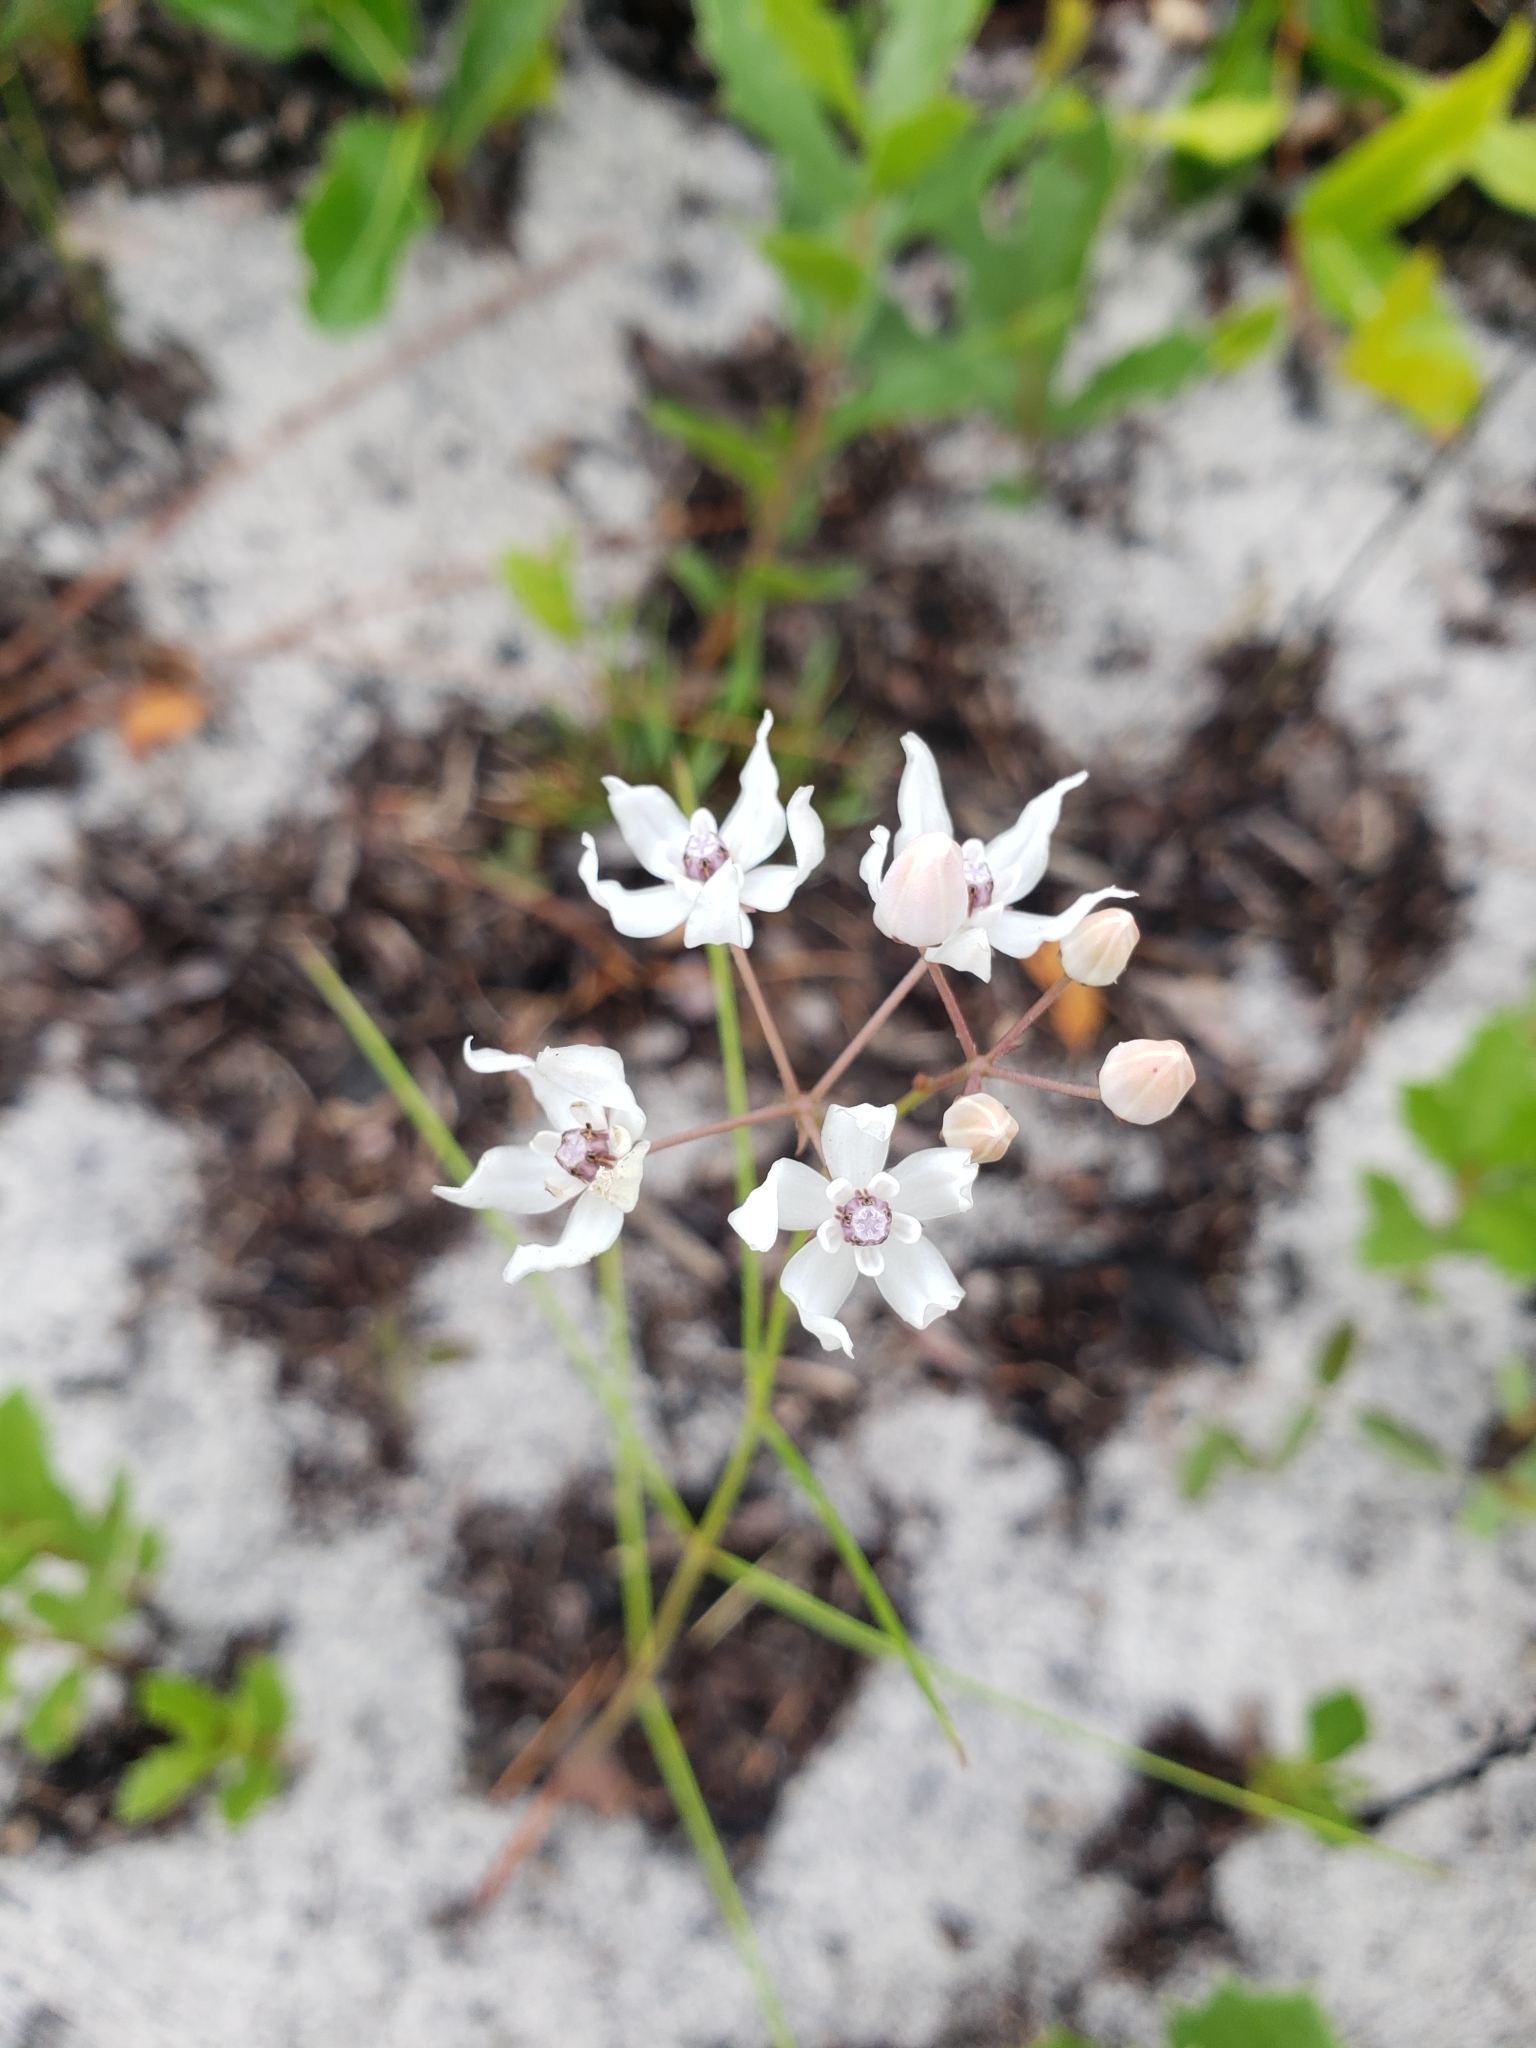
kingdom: Plantae
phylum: Tracheophyta
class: Magnoliopsida
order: Gentianales
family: Apocynaceae
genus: Asclepias
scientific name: Asclepias feayi
